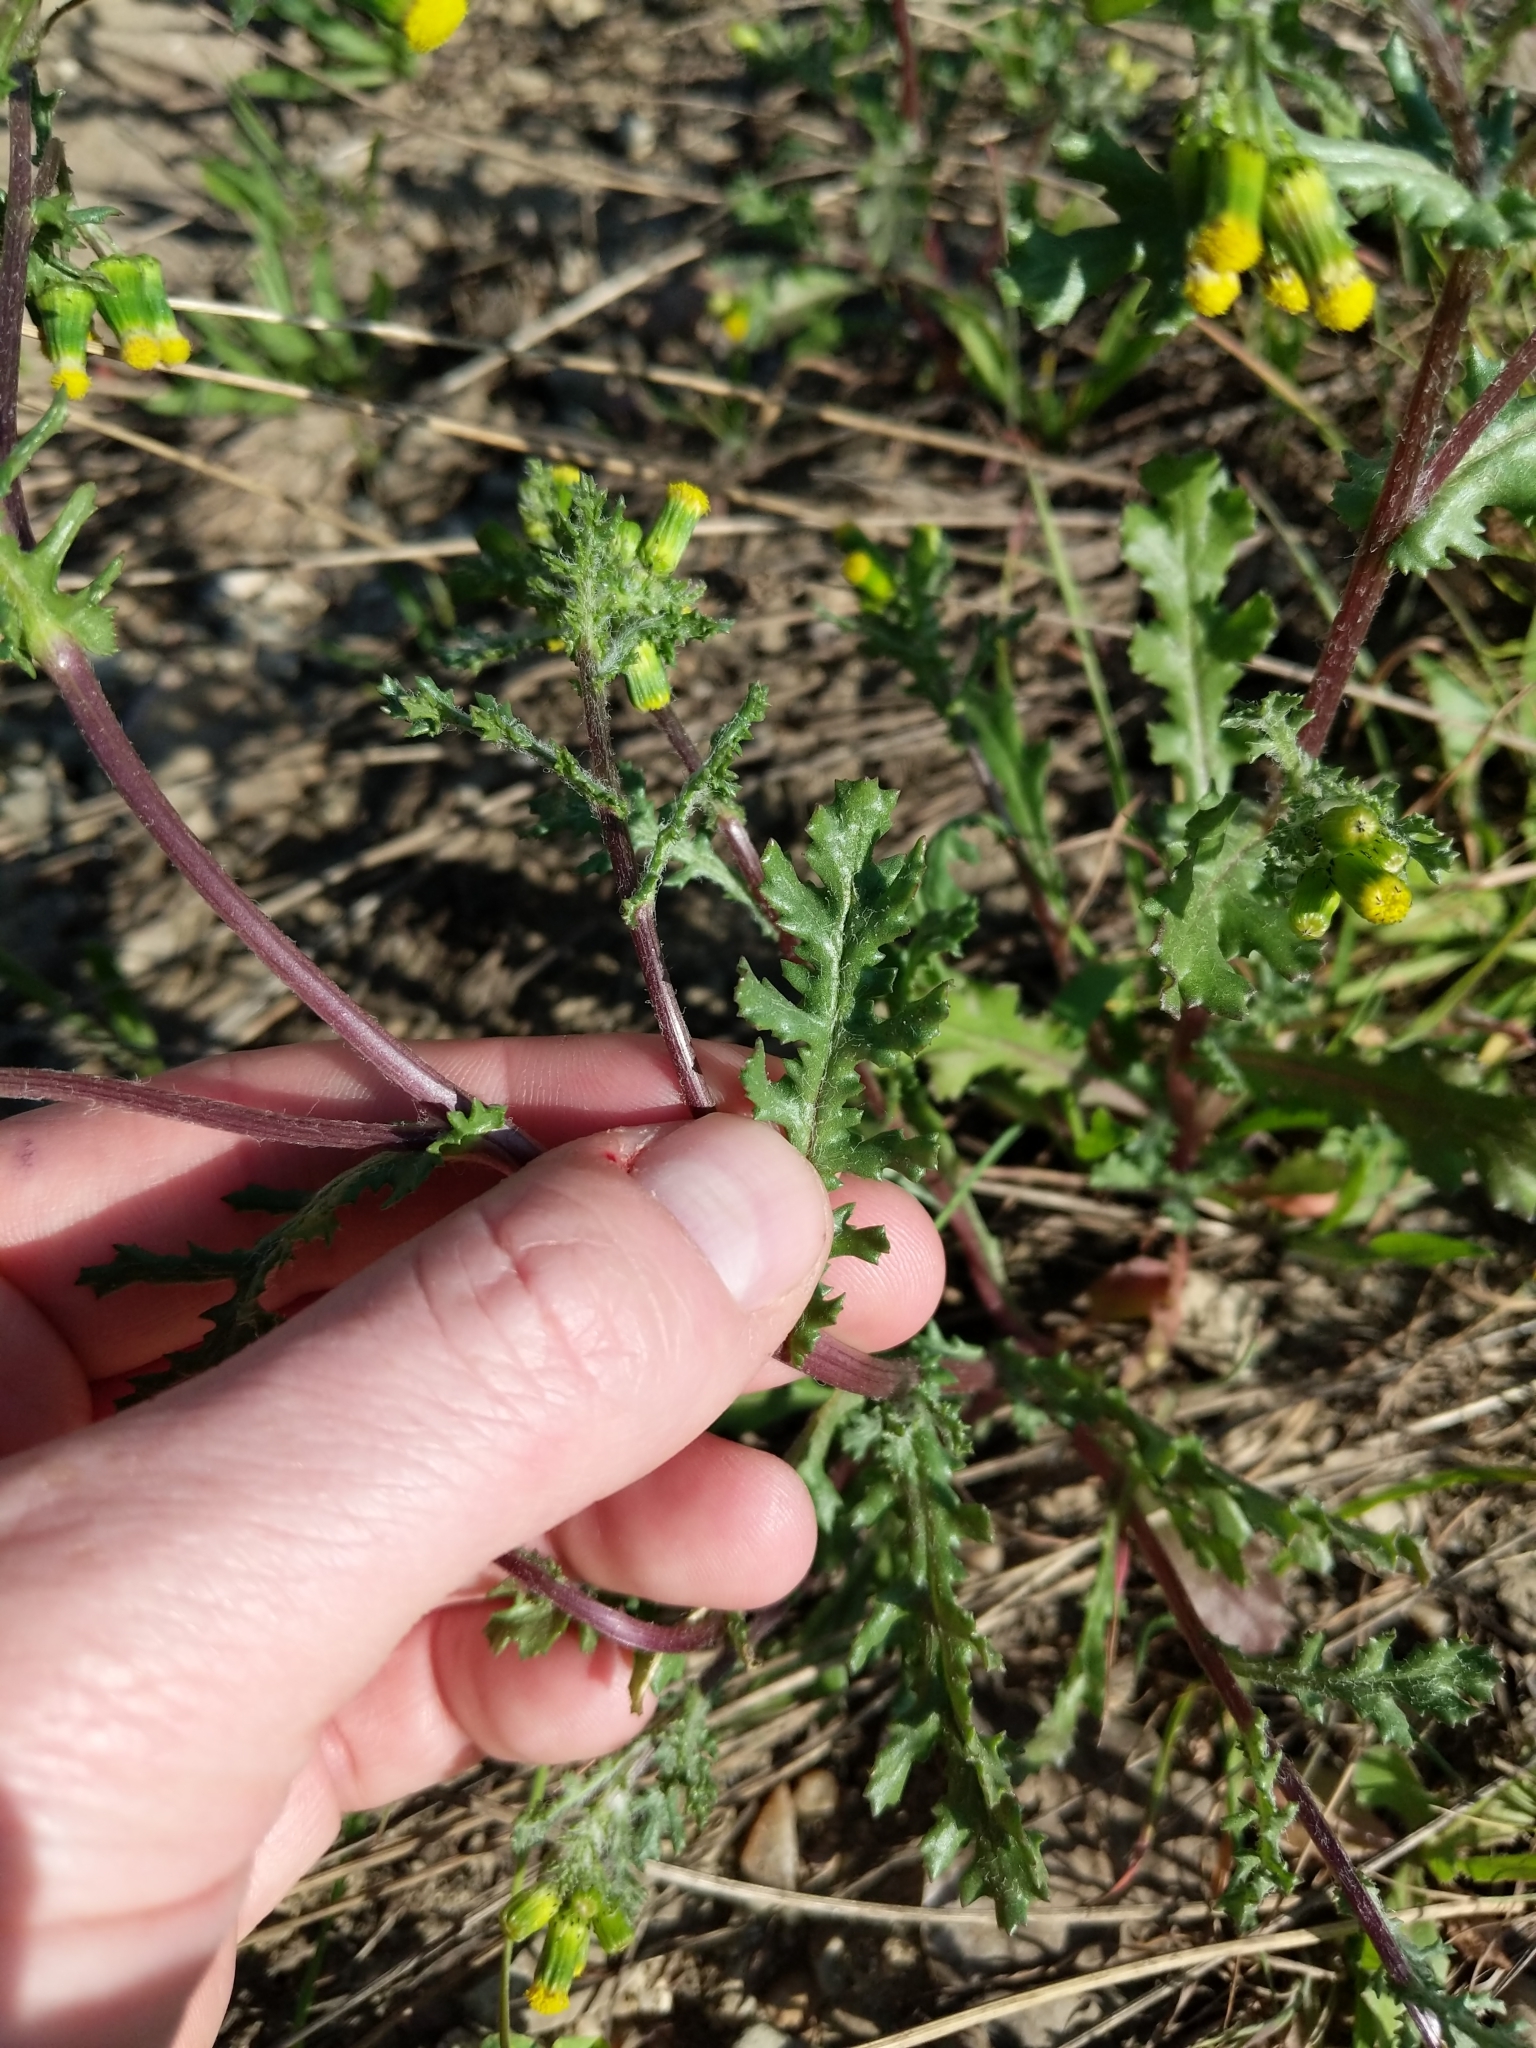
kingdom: Plantae
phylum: Tracheophyta
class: Magnoliopsida
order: Asterales
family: Asteraceae
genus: Senecio
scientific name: Senecio vulgaris
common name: Old-man-in-the-spring
